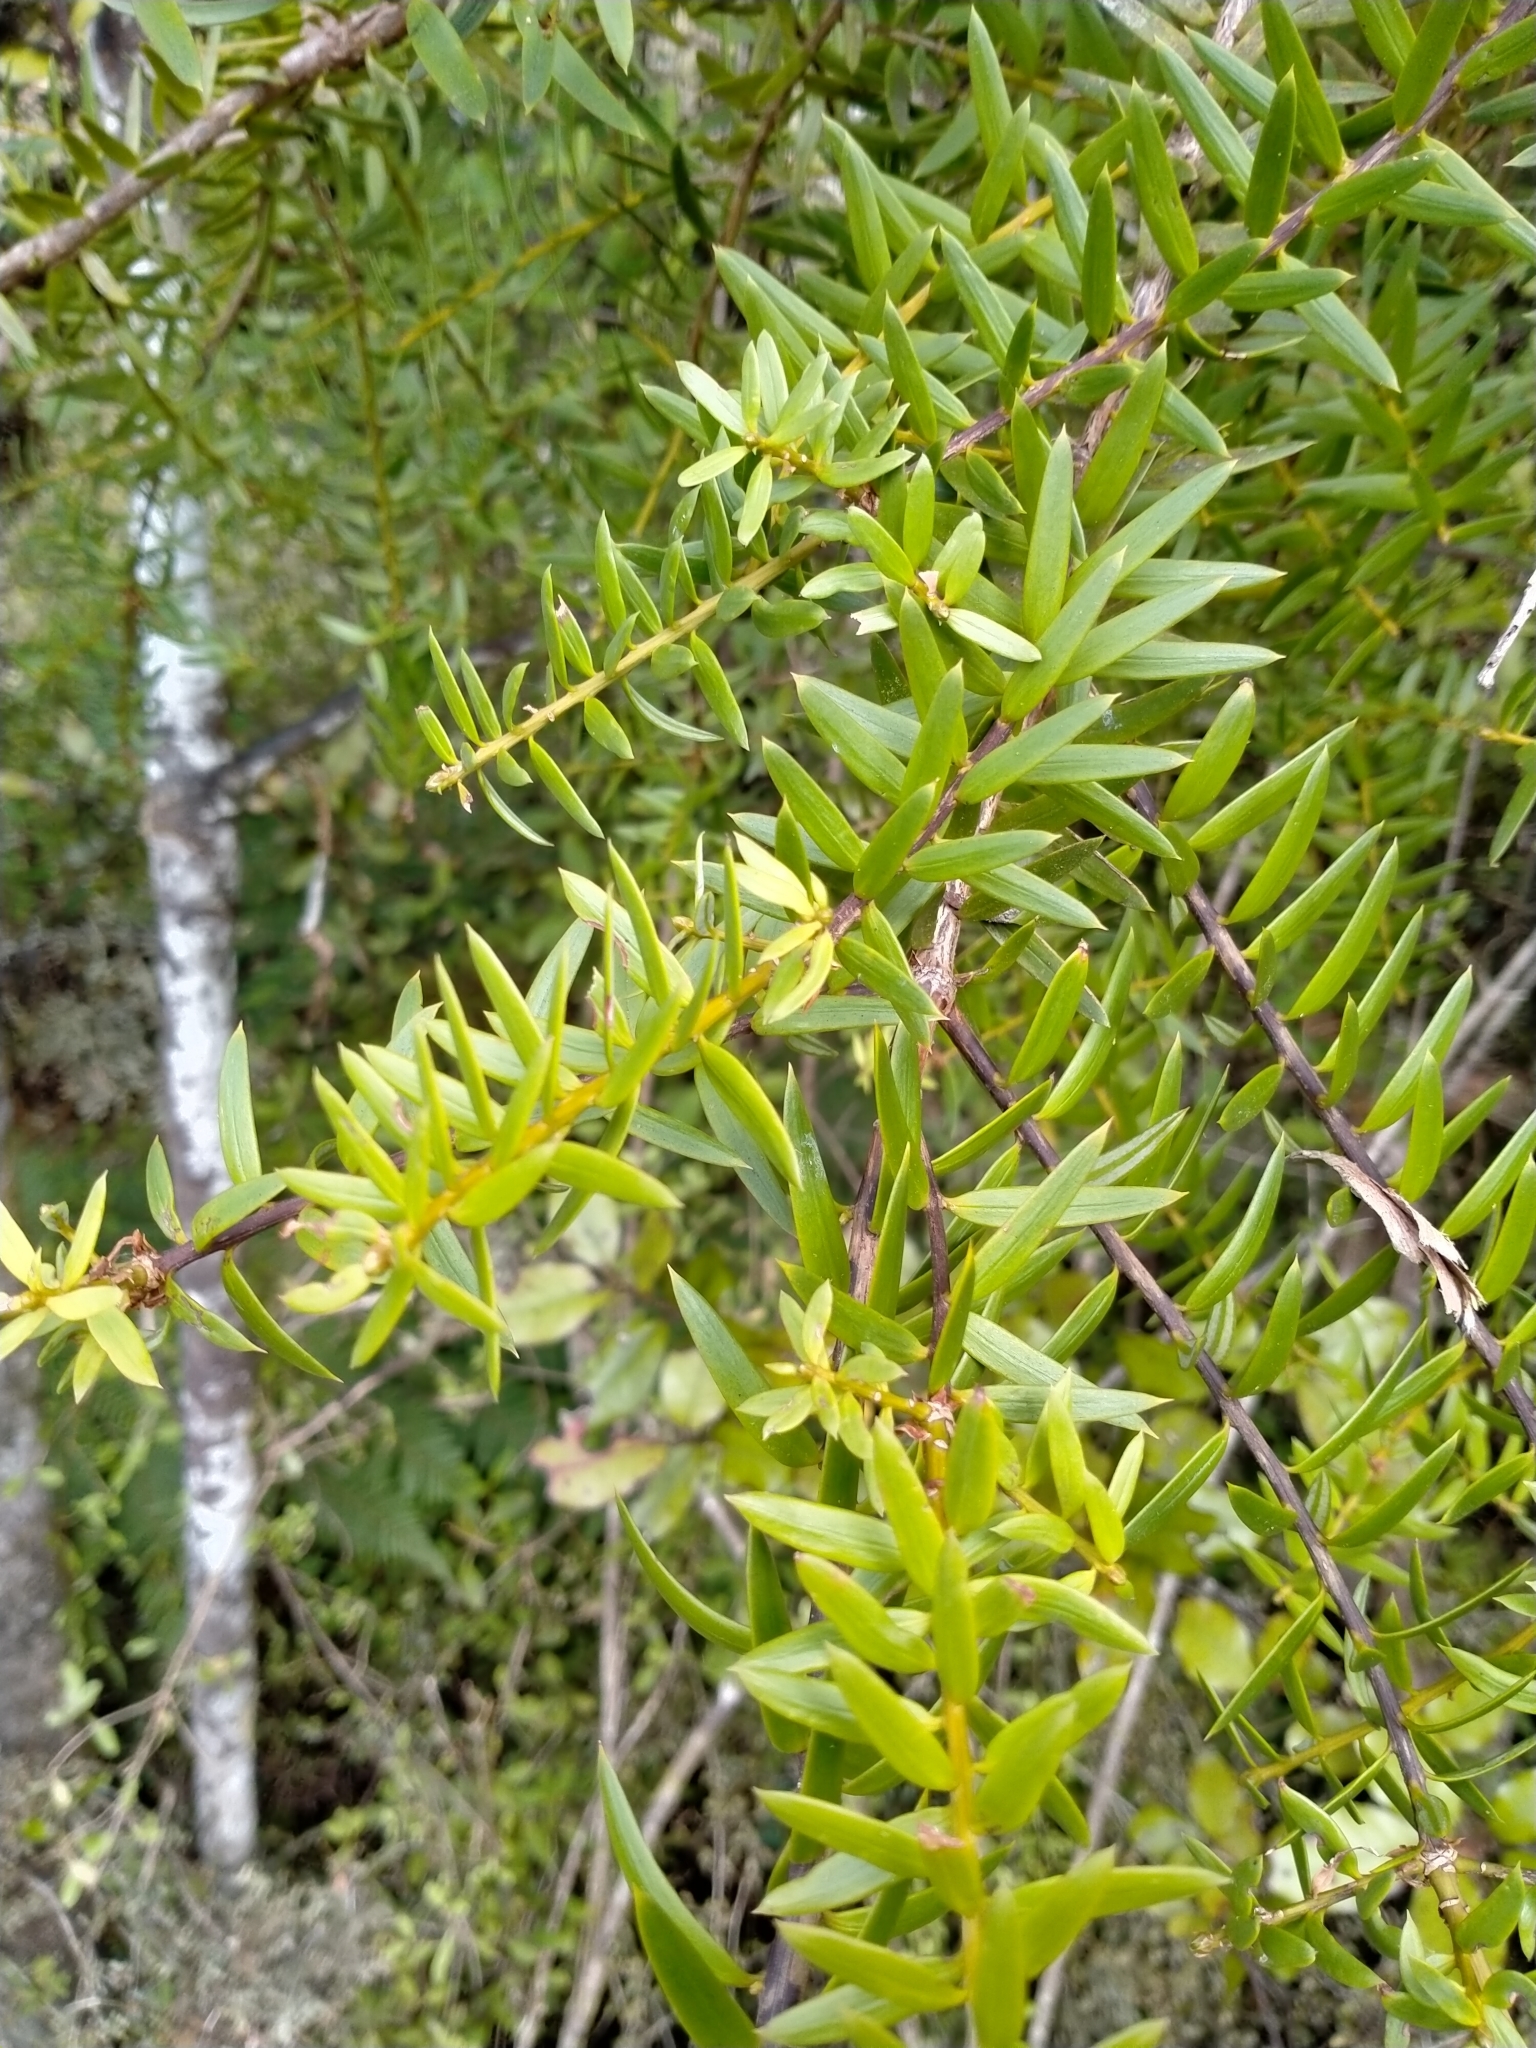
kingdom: Plantae
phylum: Tracheophyta
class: Pinopsida
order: Pinales
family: Podocarpaceae
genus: Podocarpus
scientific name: Podocarpus laetus
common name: Hall's totara
